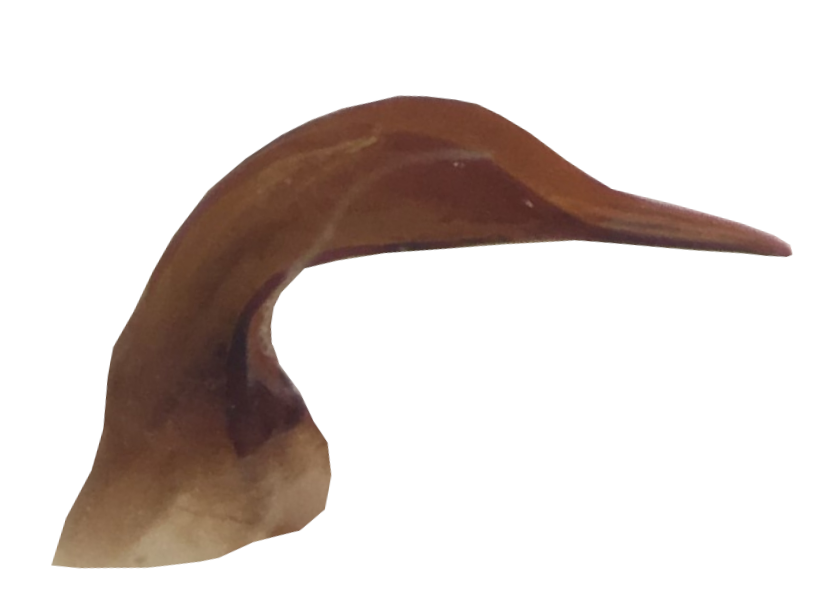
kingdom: Animalia
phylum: Arthropoda
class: Insecta
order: Coleoptera
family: Dytiscidae
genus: Matus
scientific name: Matus bicarinatus
